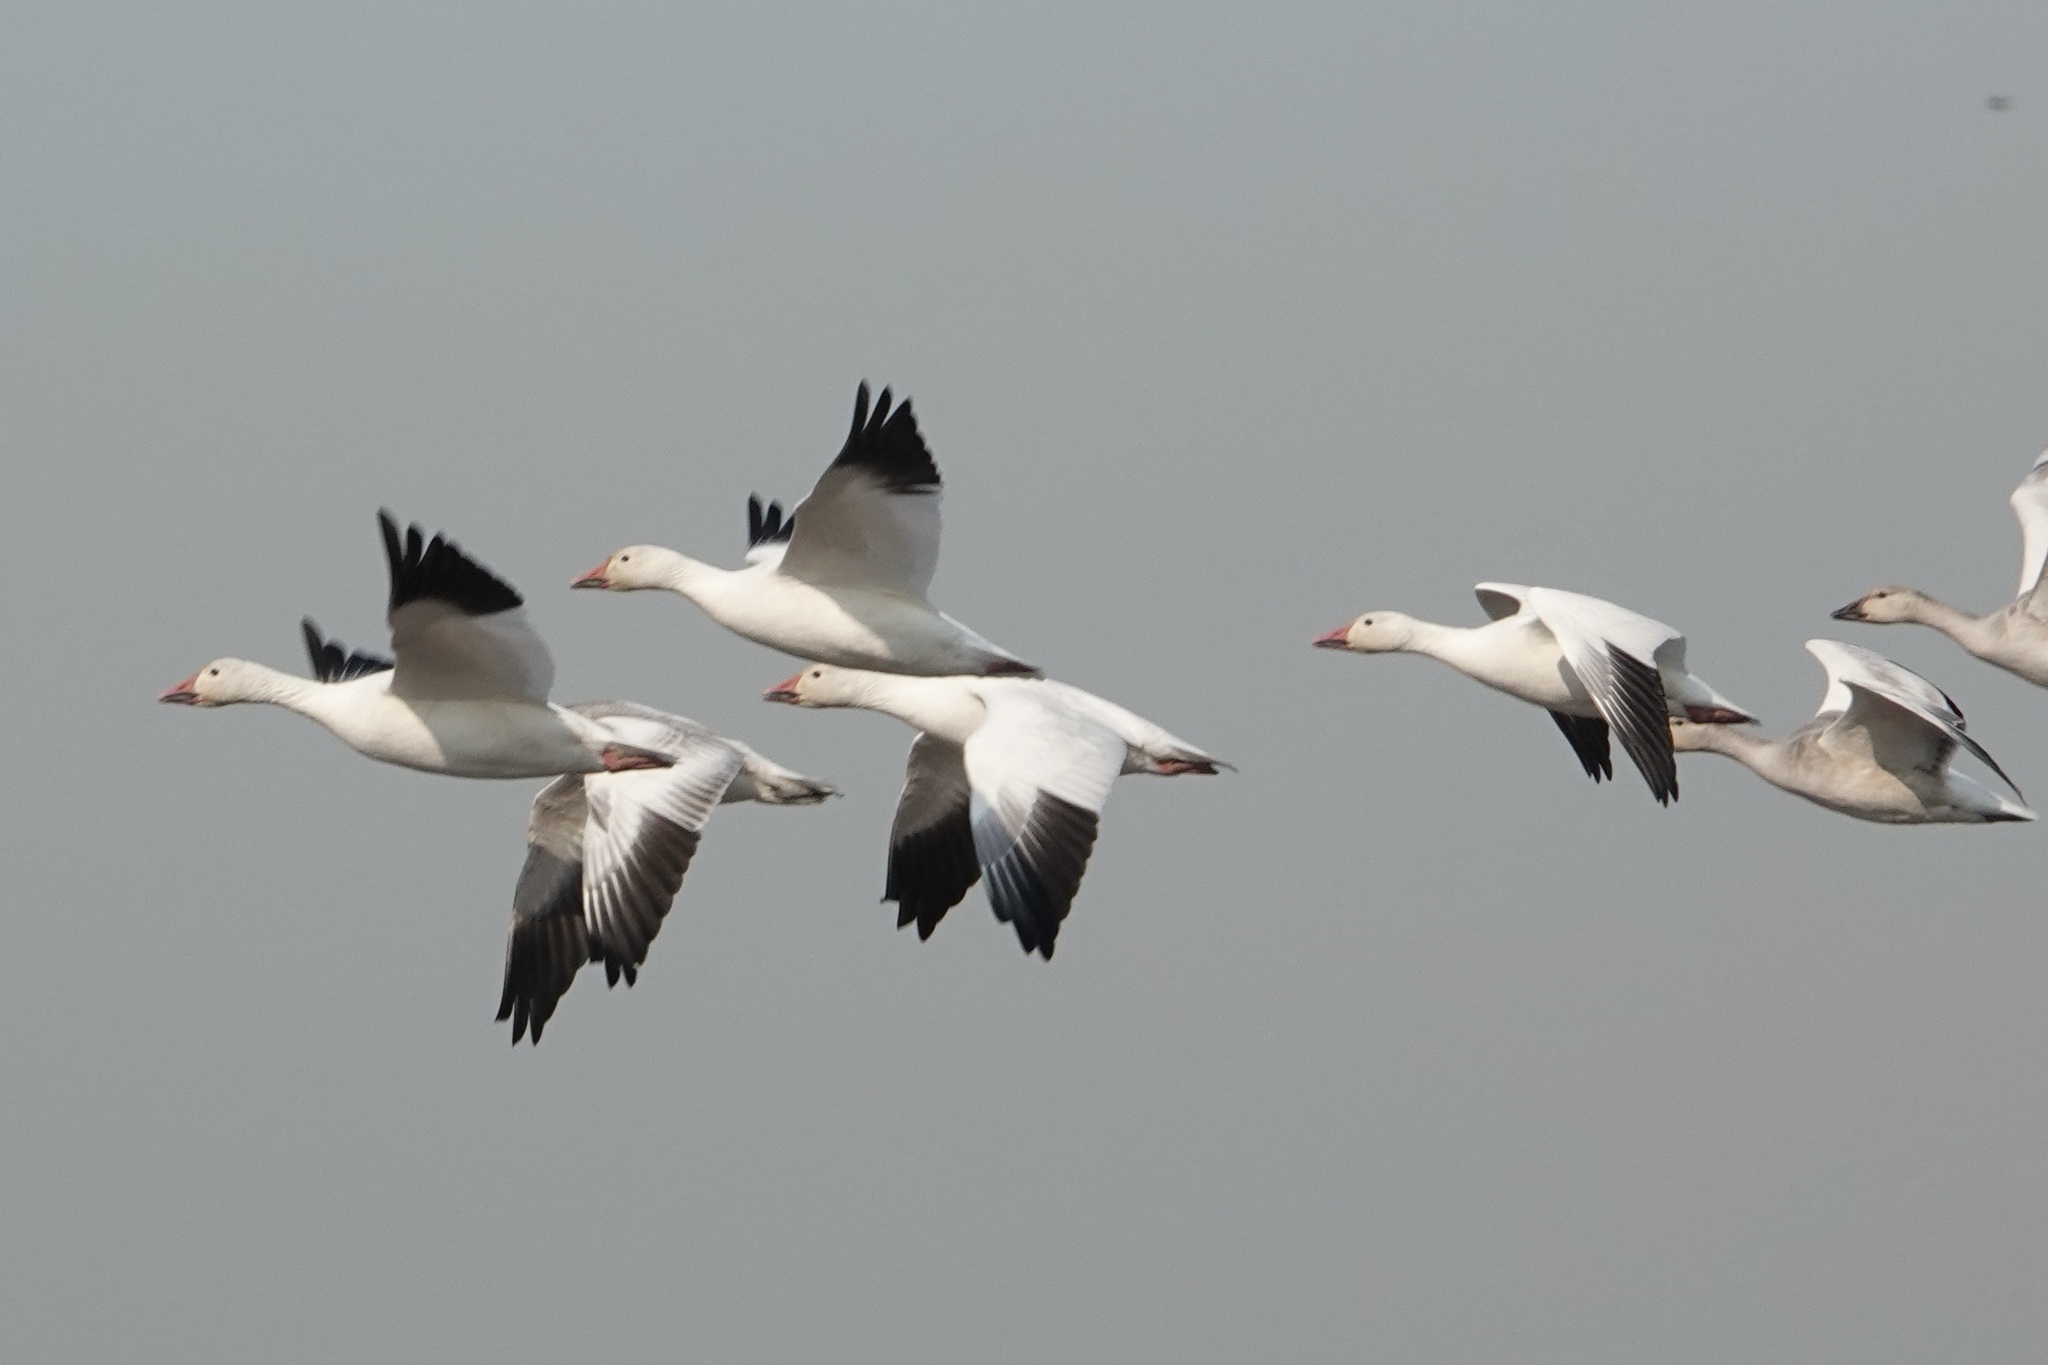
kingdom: Animalia
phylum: Chordata
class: Aves
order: Anseriformes
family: Anatidae
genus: Anser
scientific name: Anser caerulescens
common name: Snow goose
